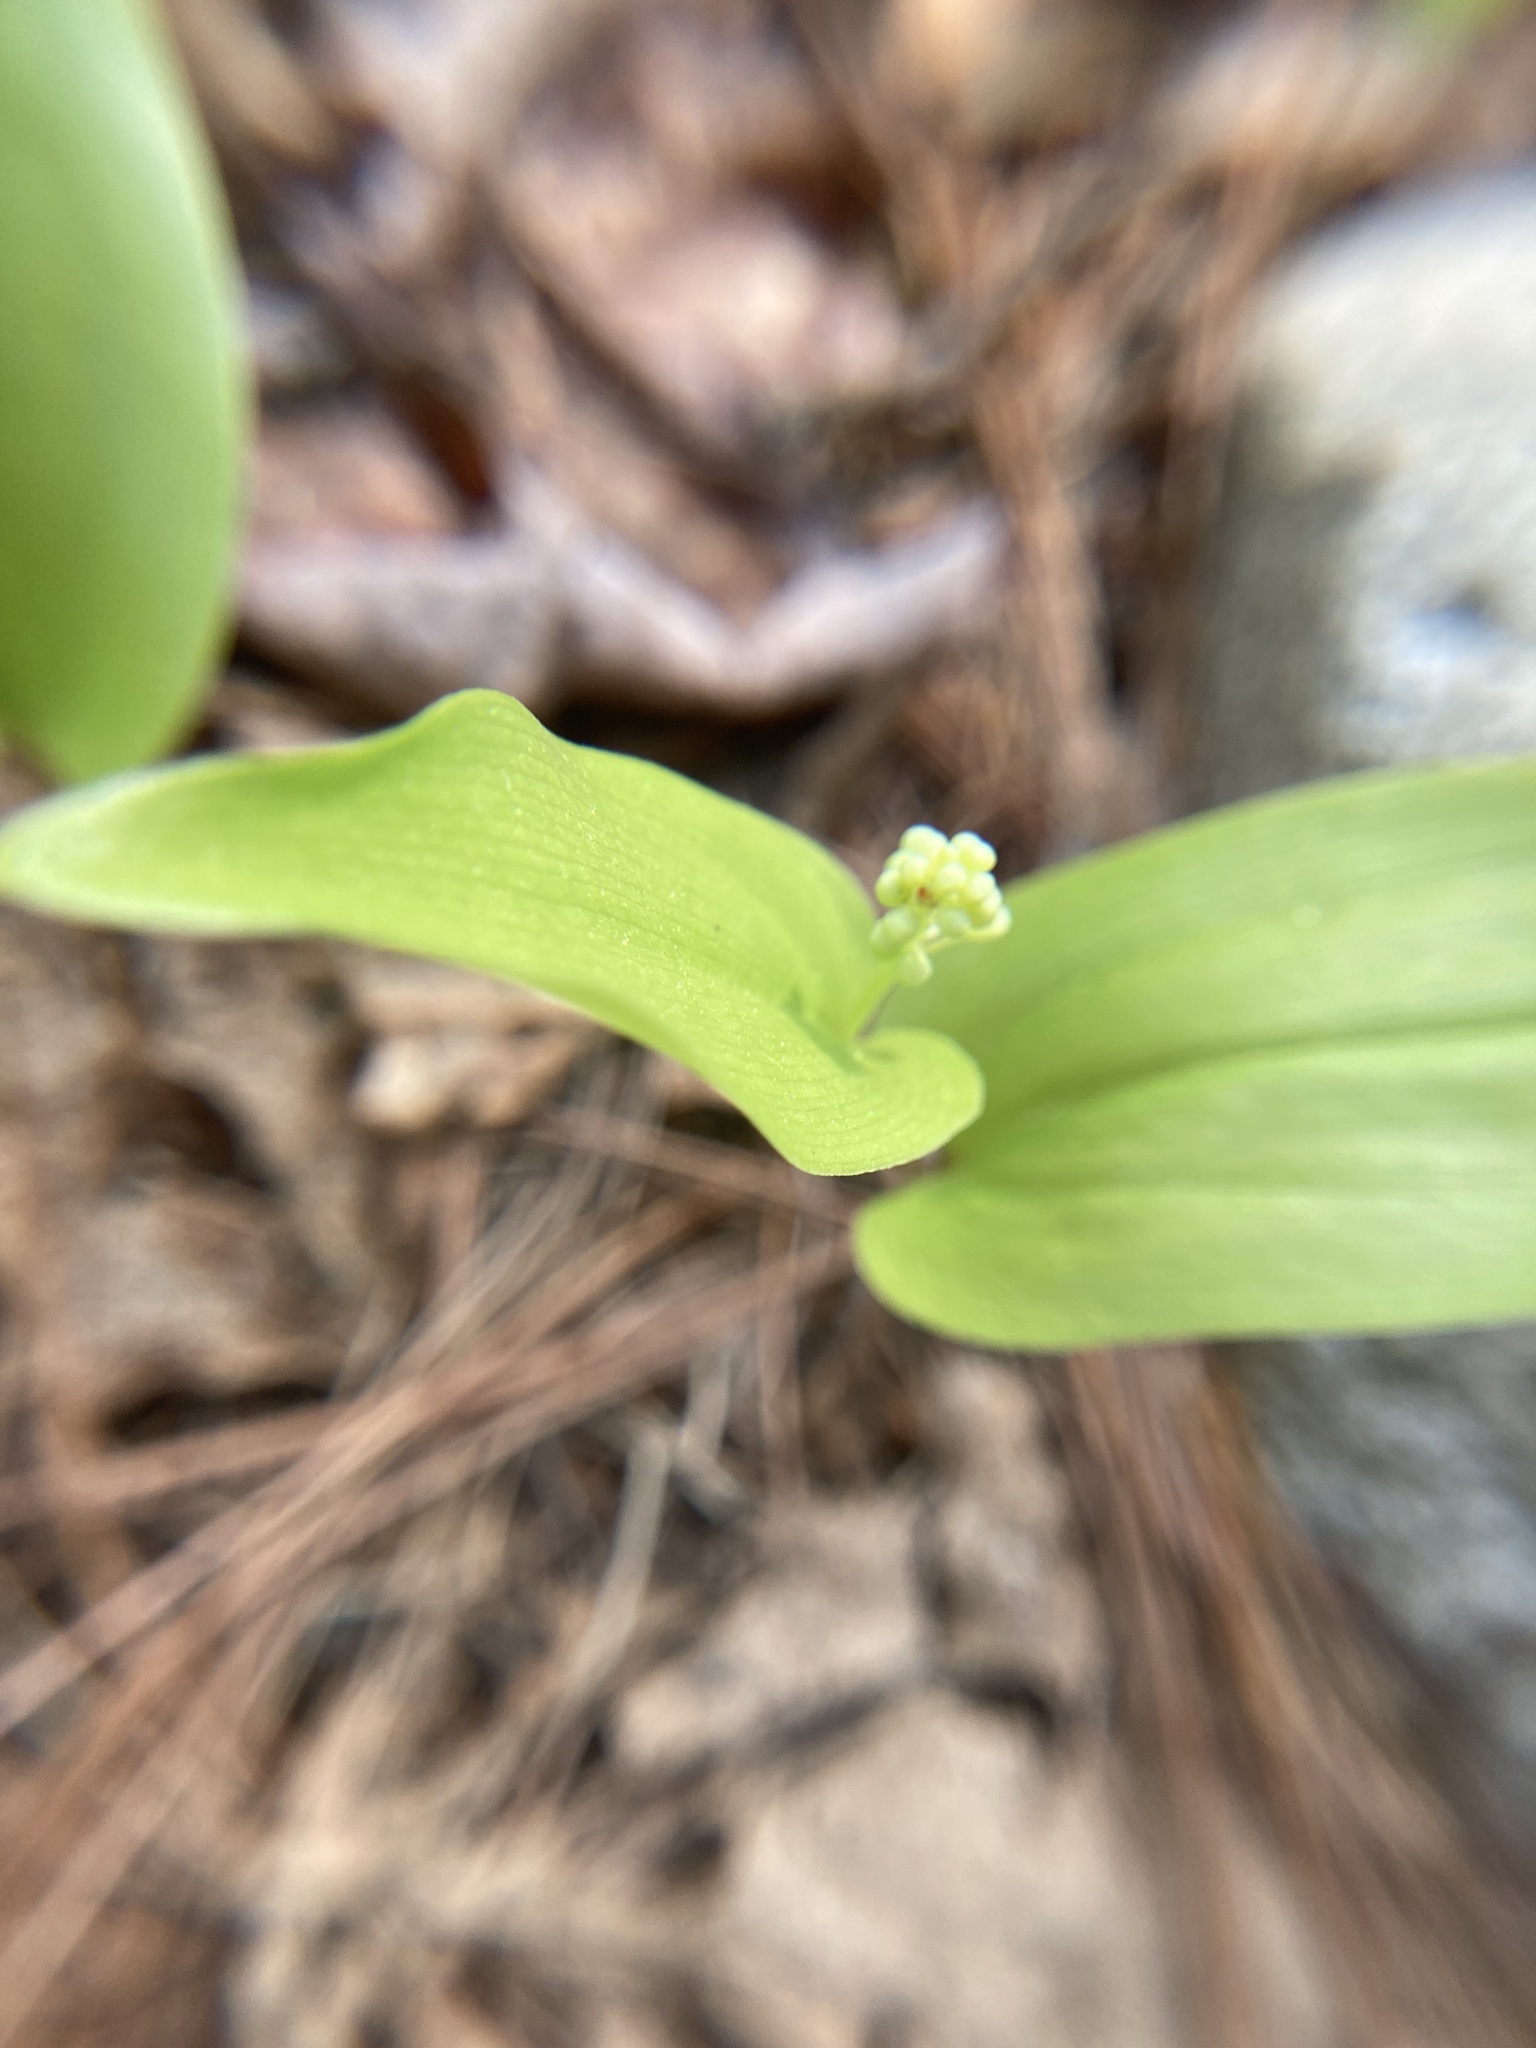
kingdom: Plantae
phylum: Tracheophyta
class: Liliopsida
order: Asparagales
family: Asparagaceae
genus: Maianthemum
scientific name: Maianthemum canadense
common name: False lily-of-the-valley
